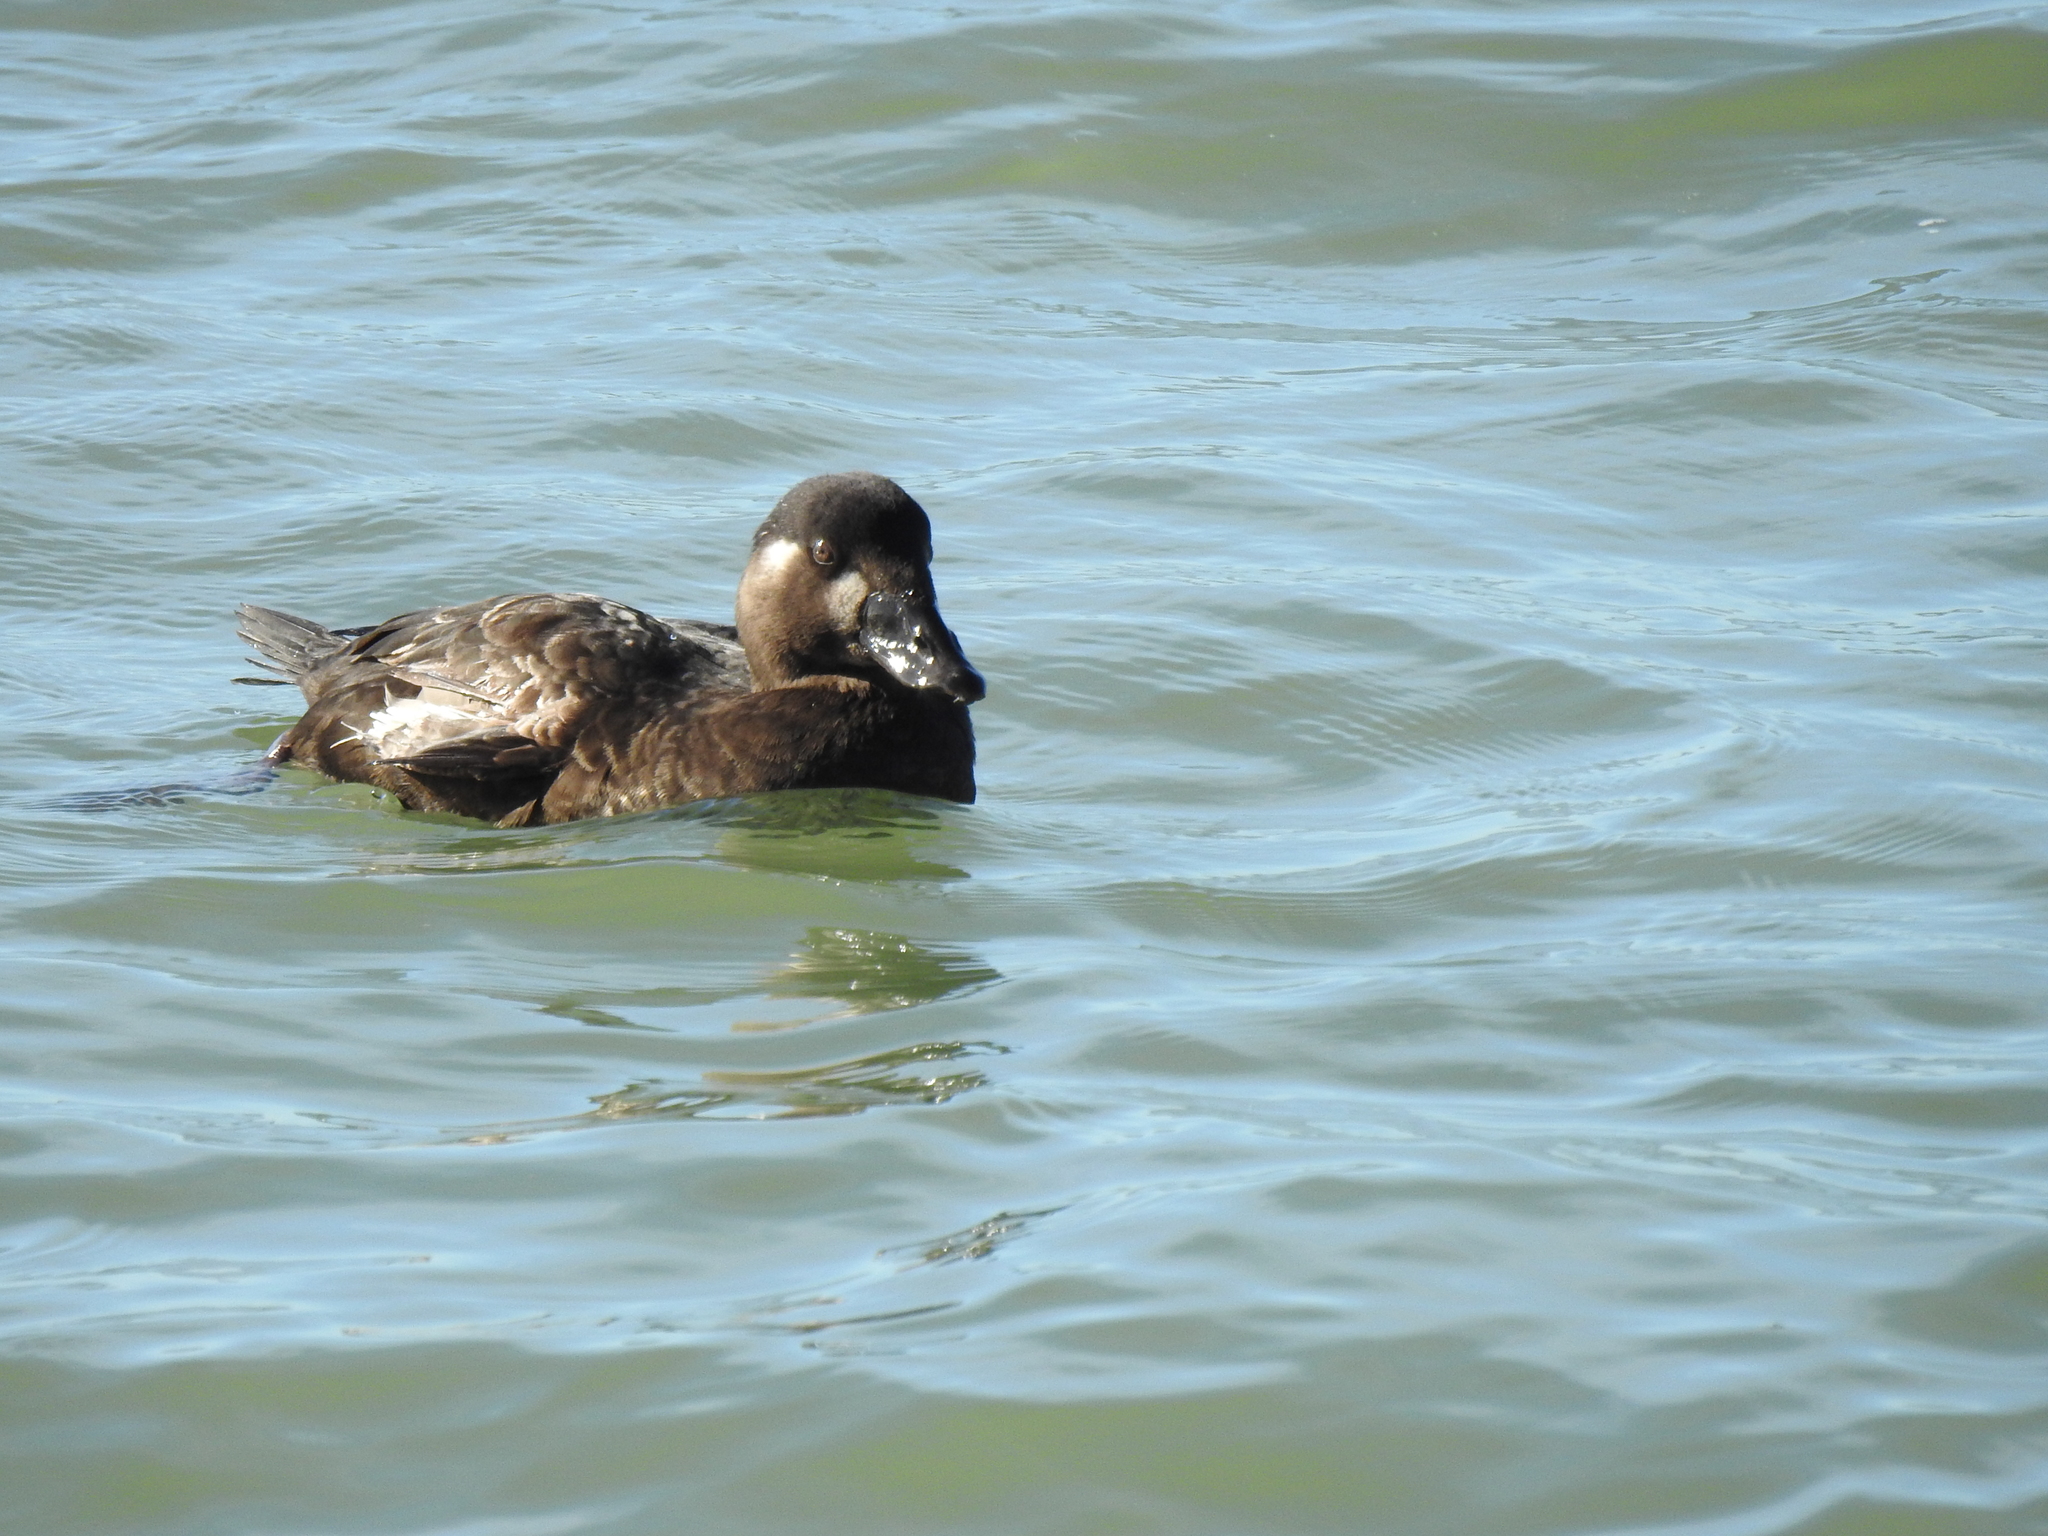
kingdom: Animalia
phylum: Chordata
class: Aves
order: Anseriformes
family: Anatidae
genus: Melanitta
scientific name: Melanitta perspicillata
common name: Surf scoter
